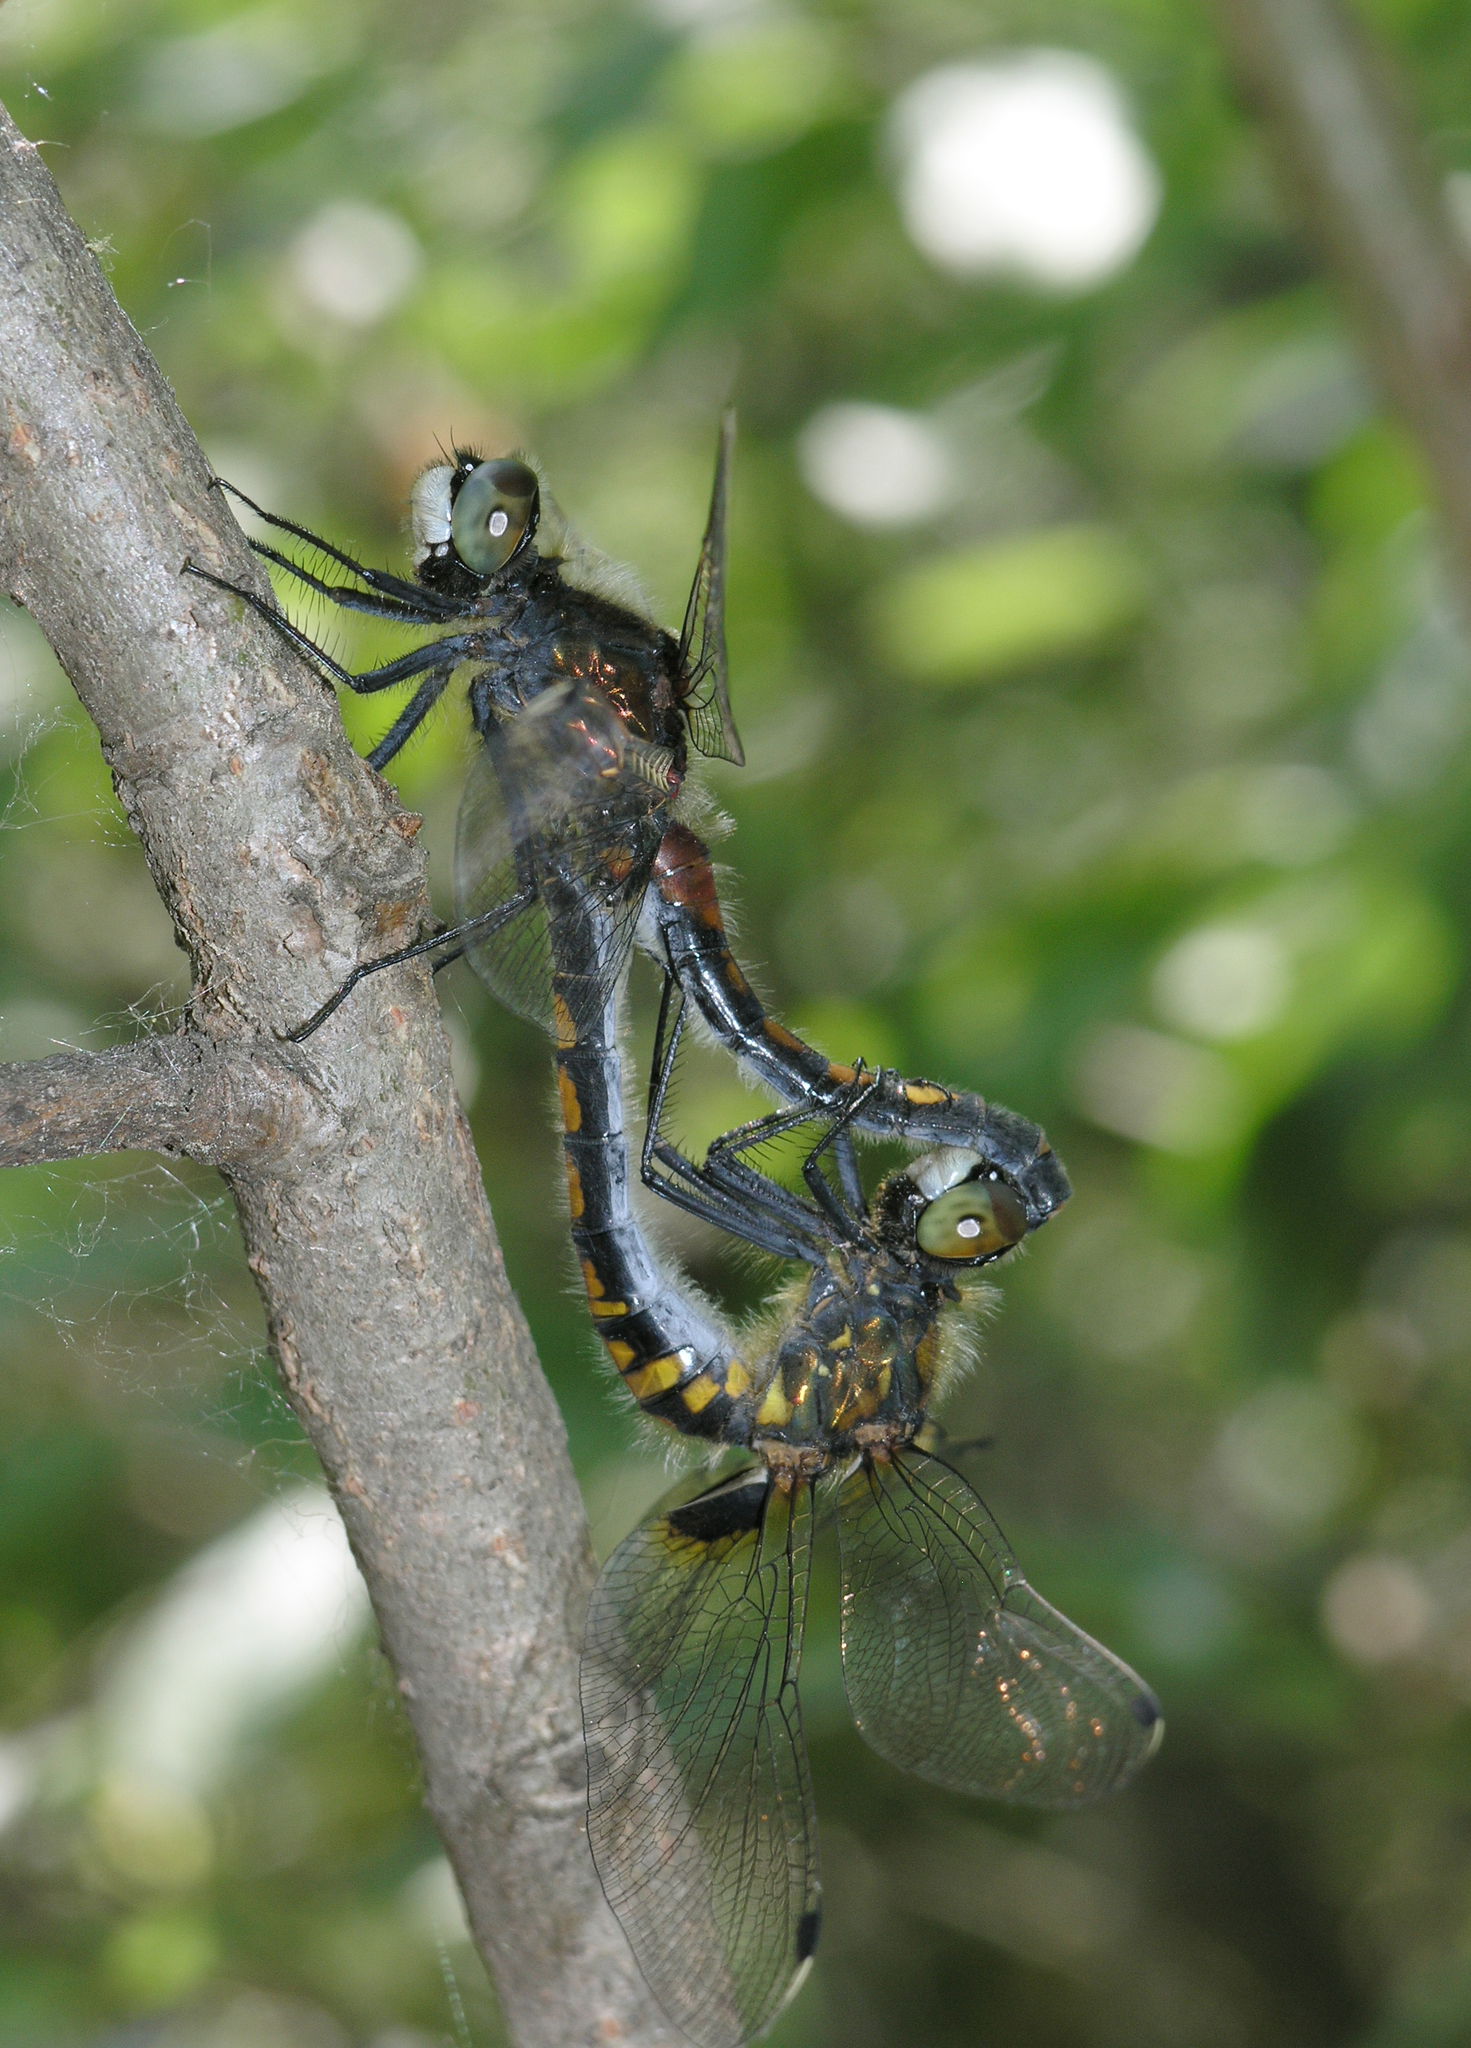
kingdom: Animalia
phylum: Arthropoda
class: Insecta
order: Odonata
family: Libellulidae
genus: Leucorrhinia
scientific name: Leucorrhinia pectoralis
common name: Yellow-spotted whiteface
